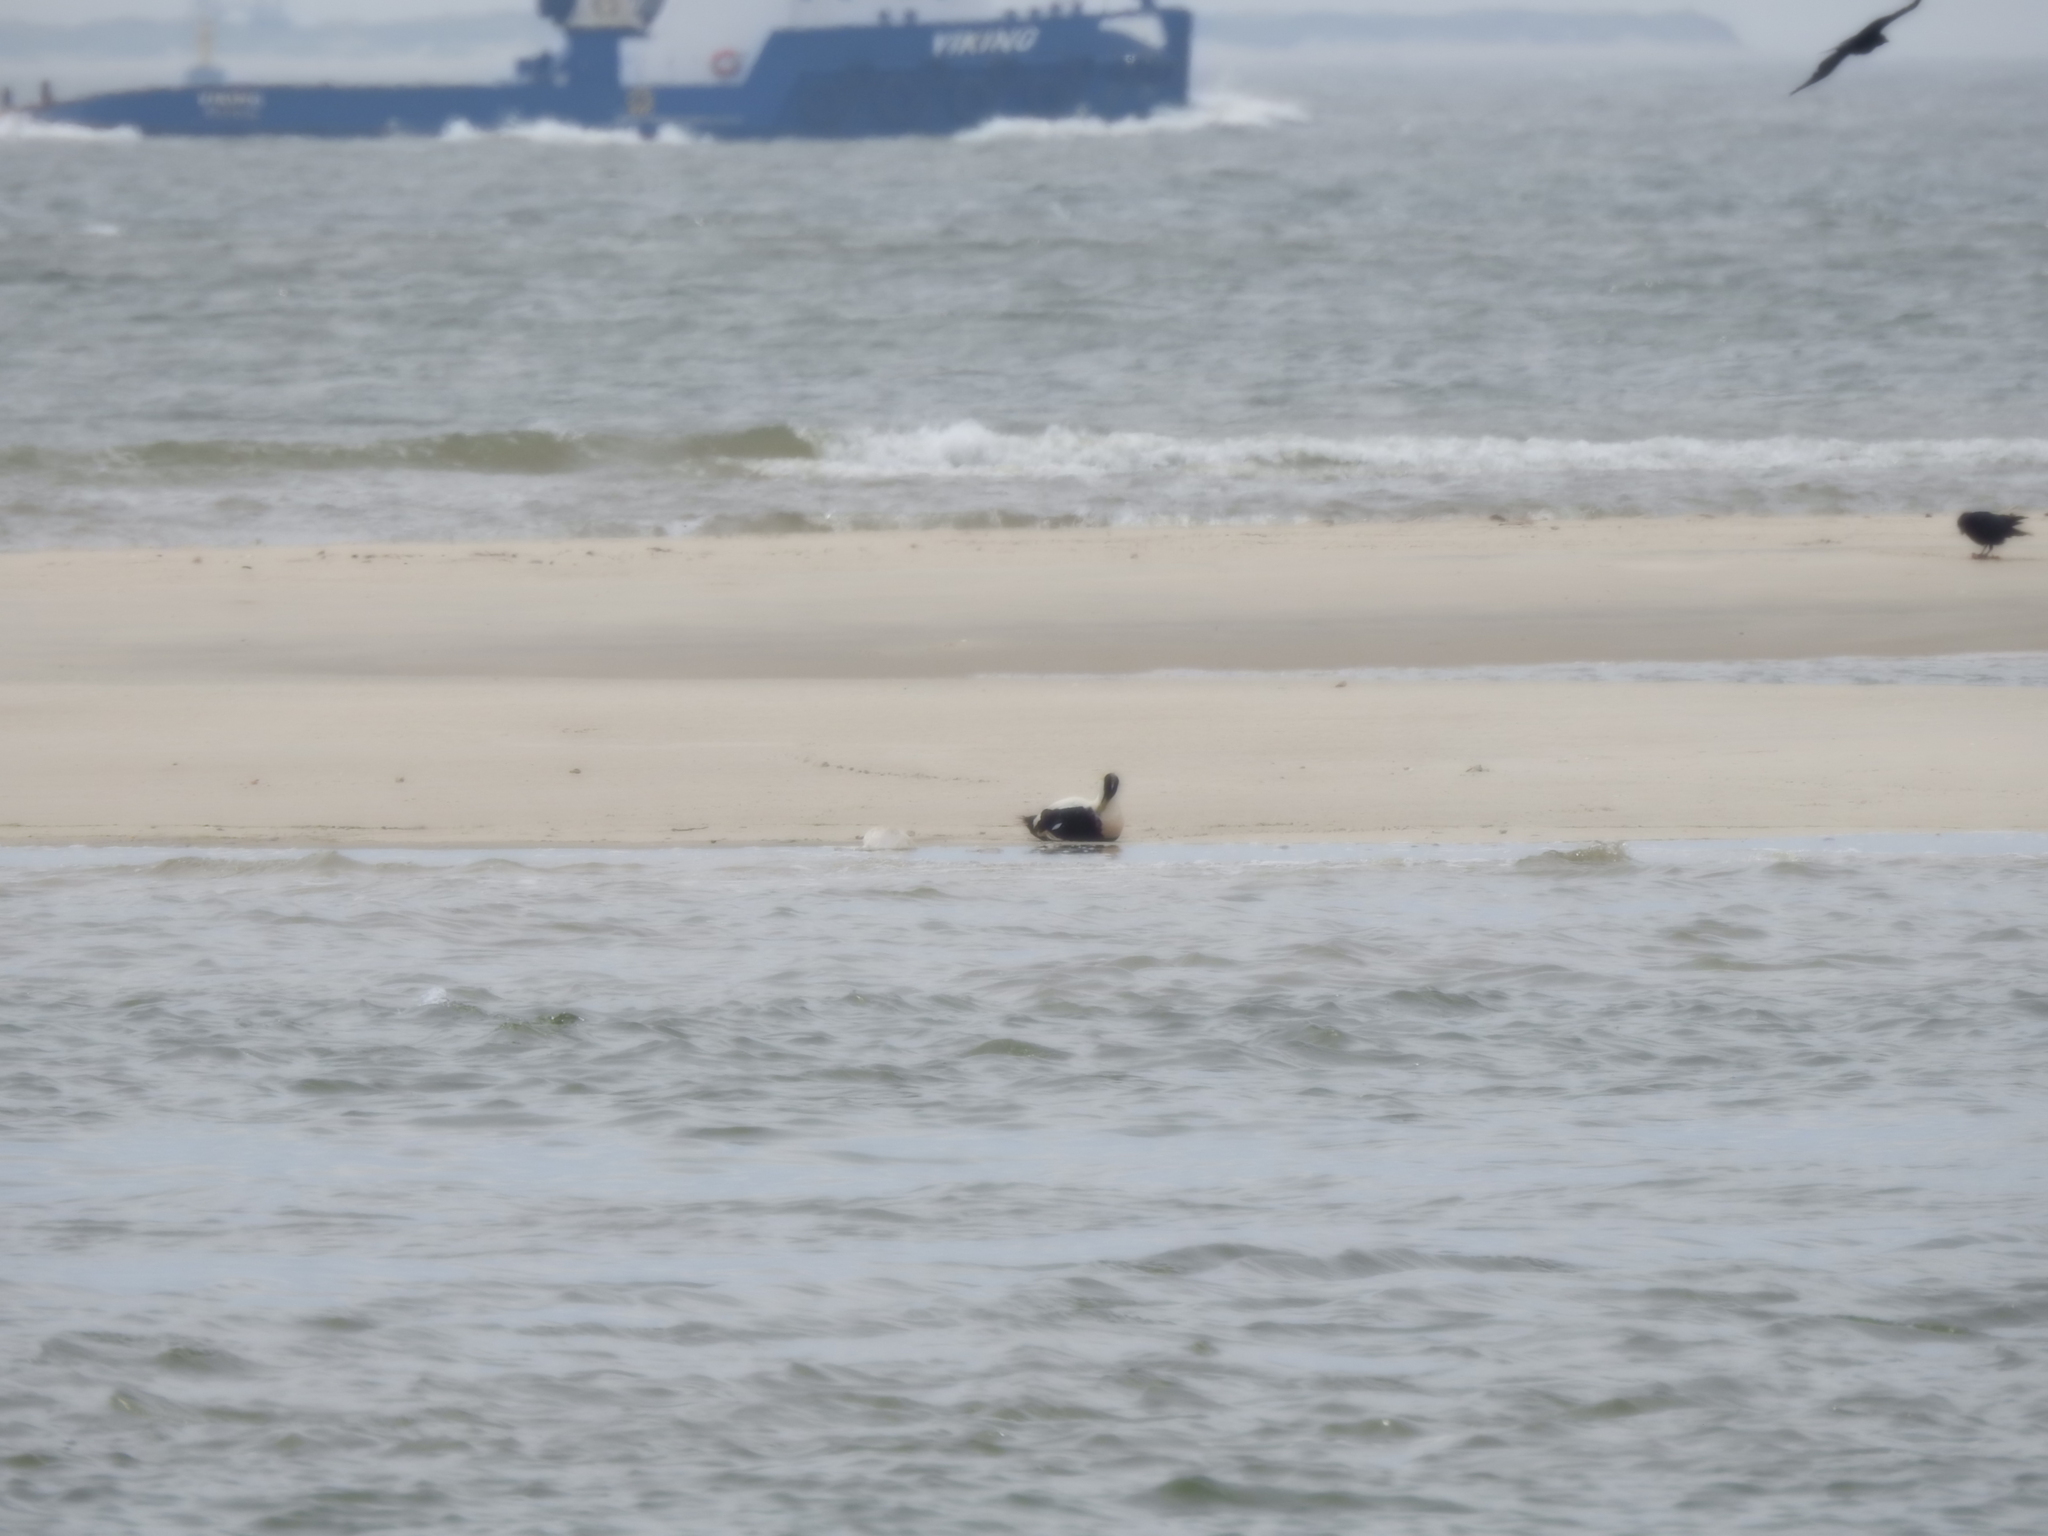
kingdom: Animalia
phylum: Chordata
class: Aves
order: Anseriformes
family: Anatidae
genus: Somateria
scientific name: Somateria mollissima
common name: Common eider
